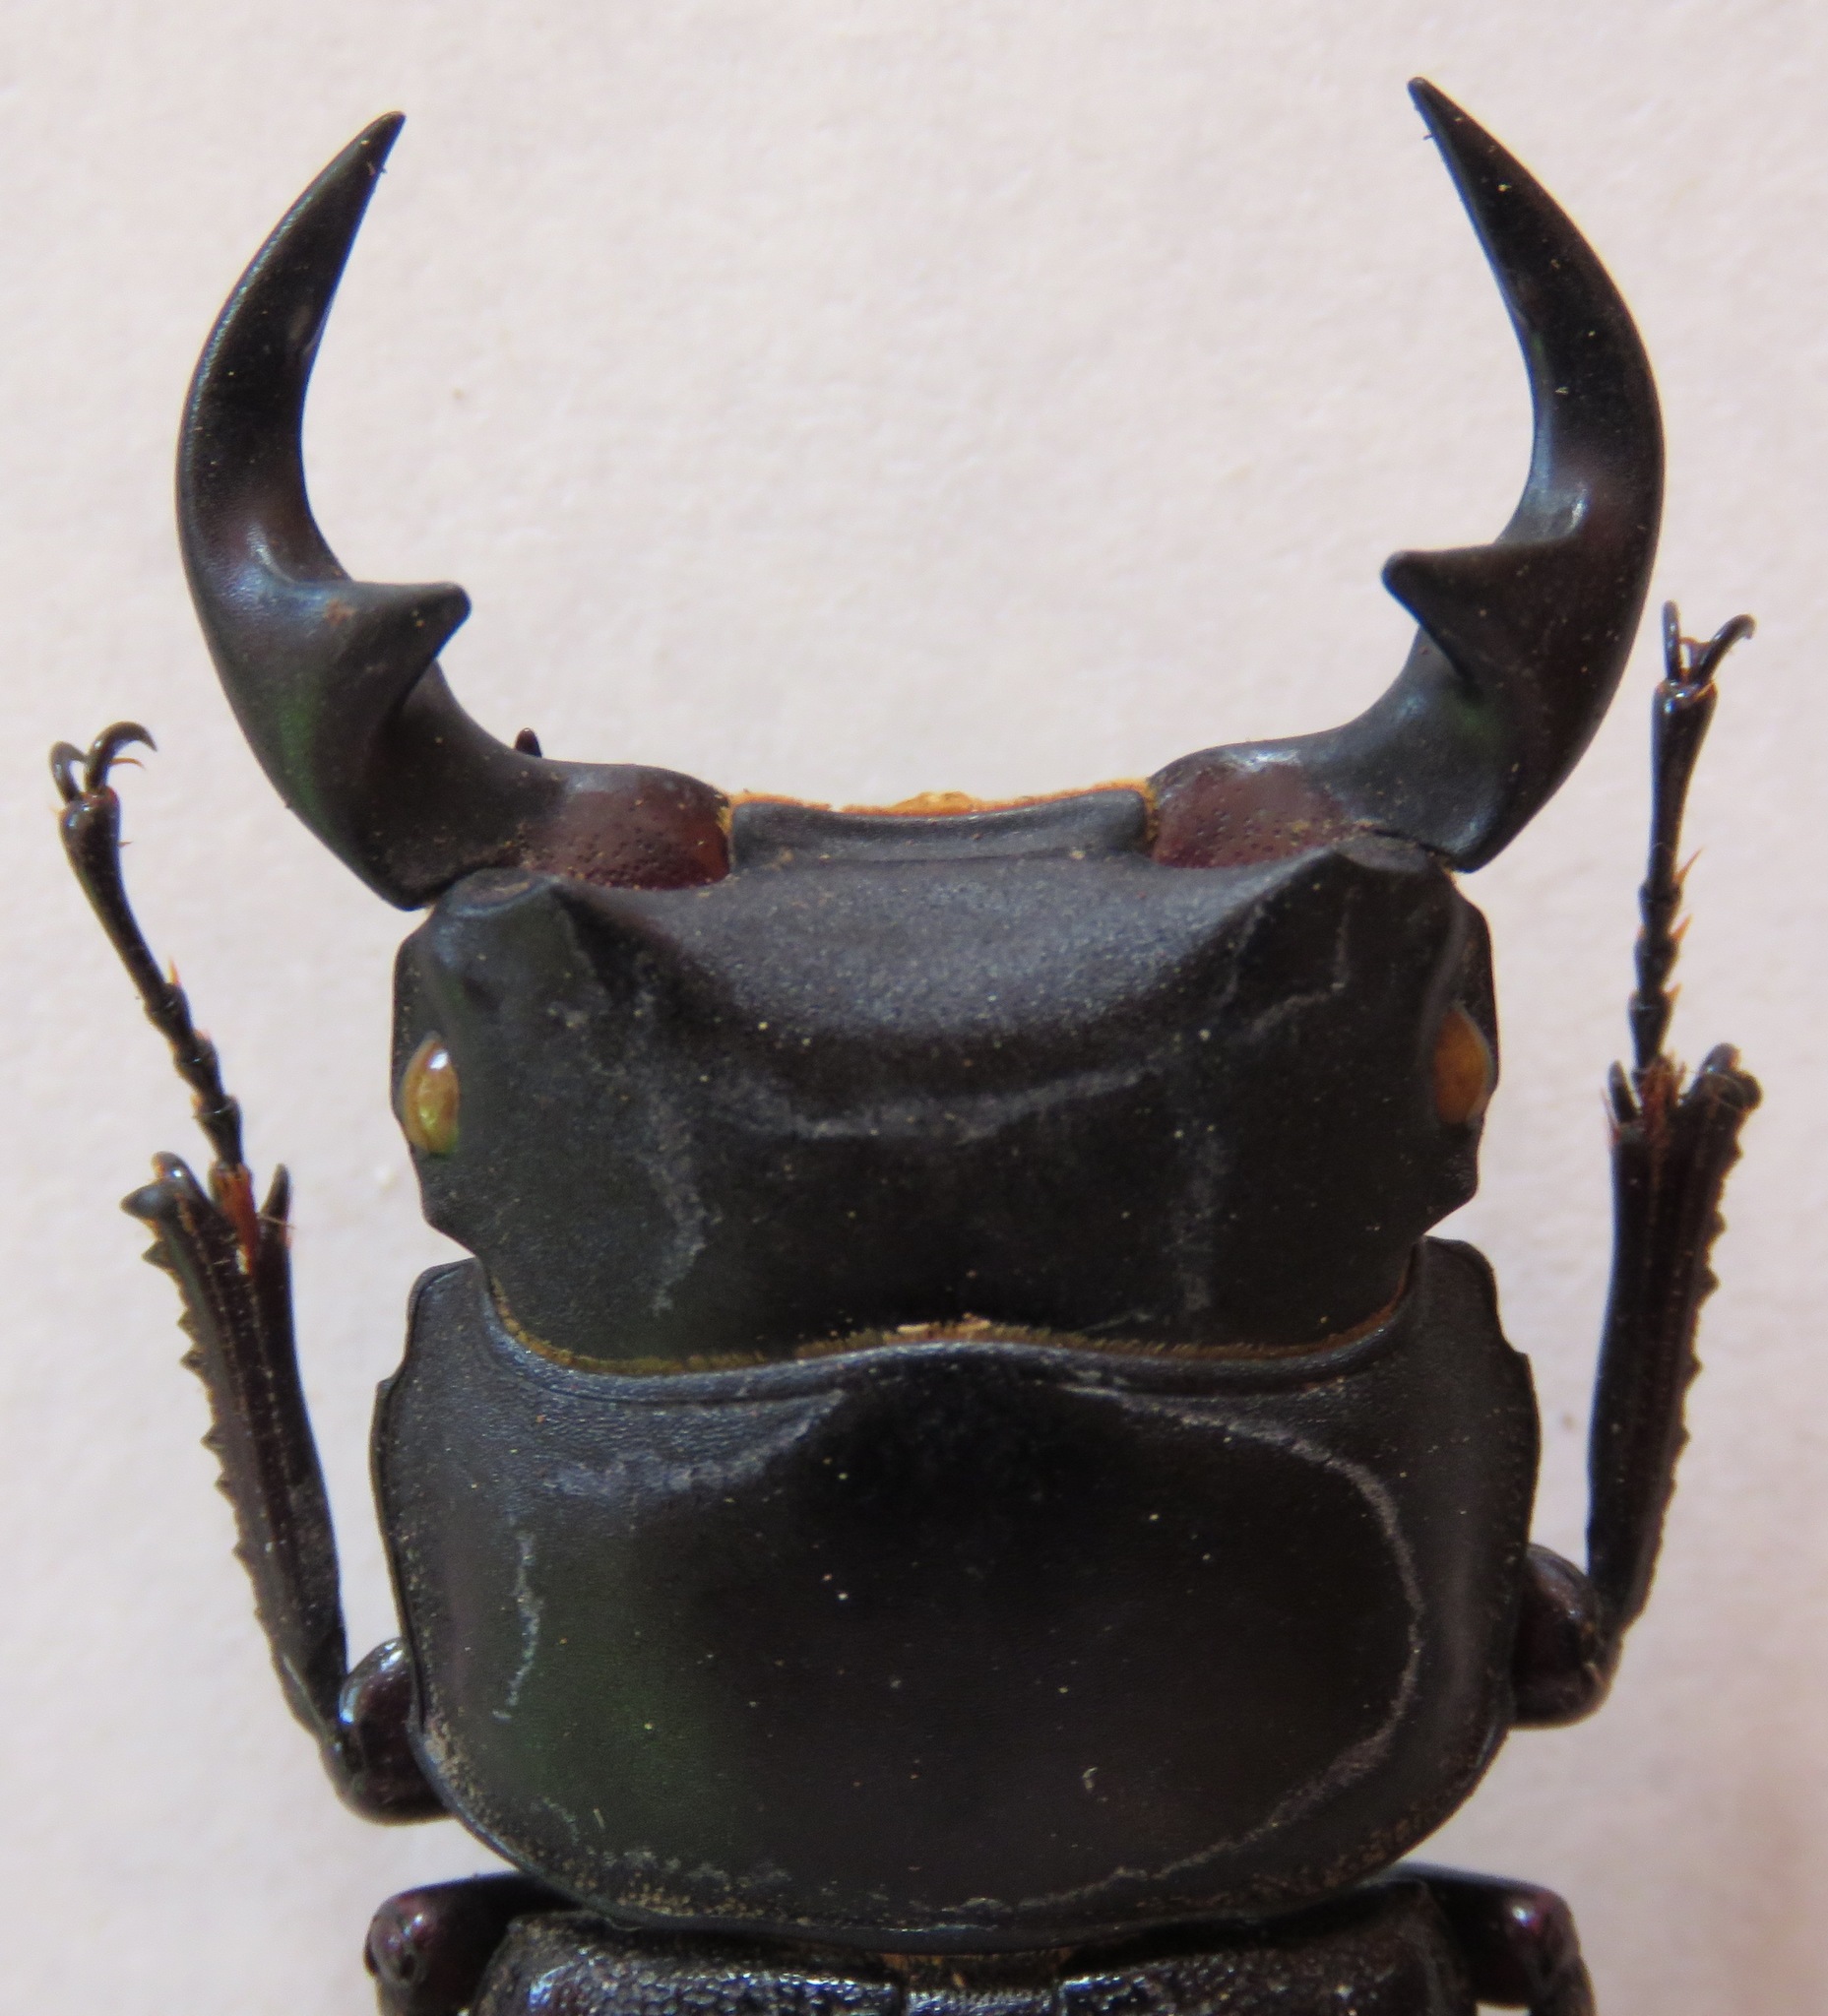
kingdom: Animalia
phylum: Arthropoda
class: Insecta
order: Coleoptera
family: Lucanidae
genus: Dorcus
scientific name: Dorcus curvidens
